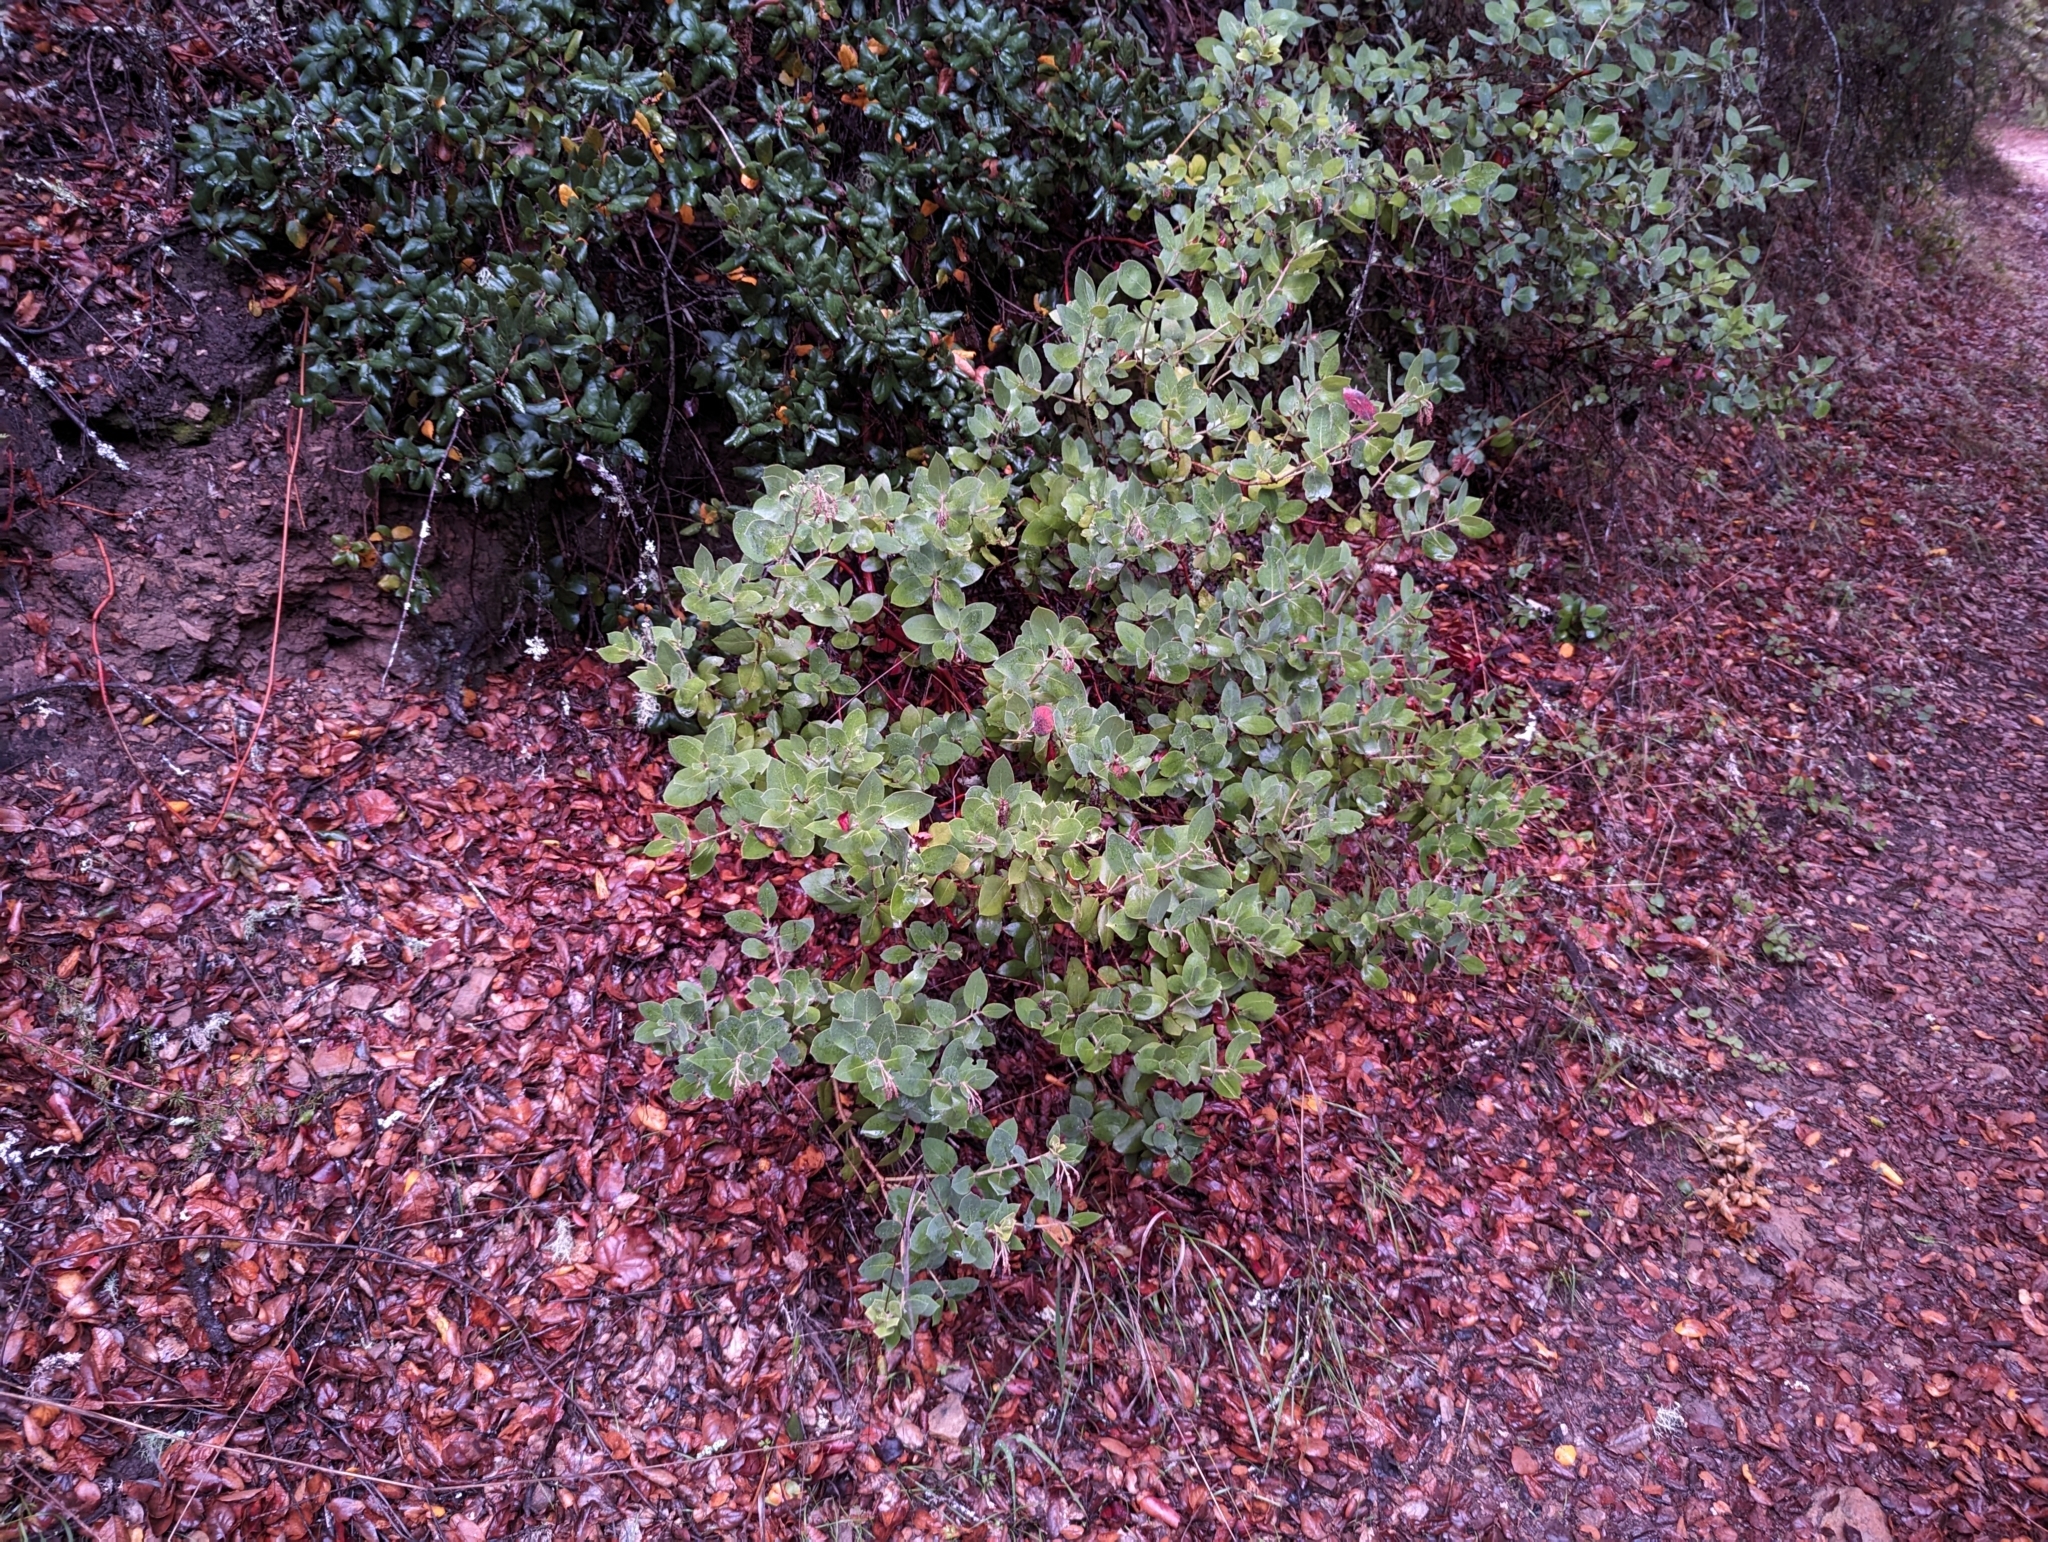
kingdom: Plantae
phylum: Tracheophyta
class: Magnoliopsida
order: Ericales
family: Ericaceae
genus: Arctostaphylos
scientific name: Arctostaphylos crustacea
